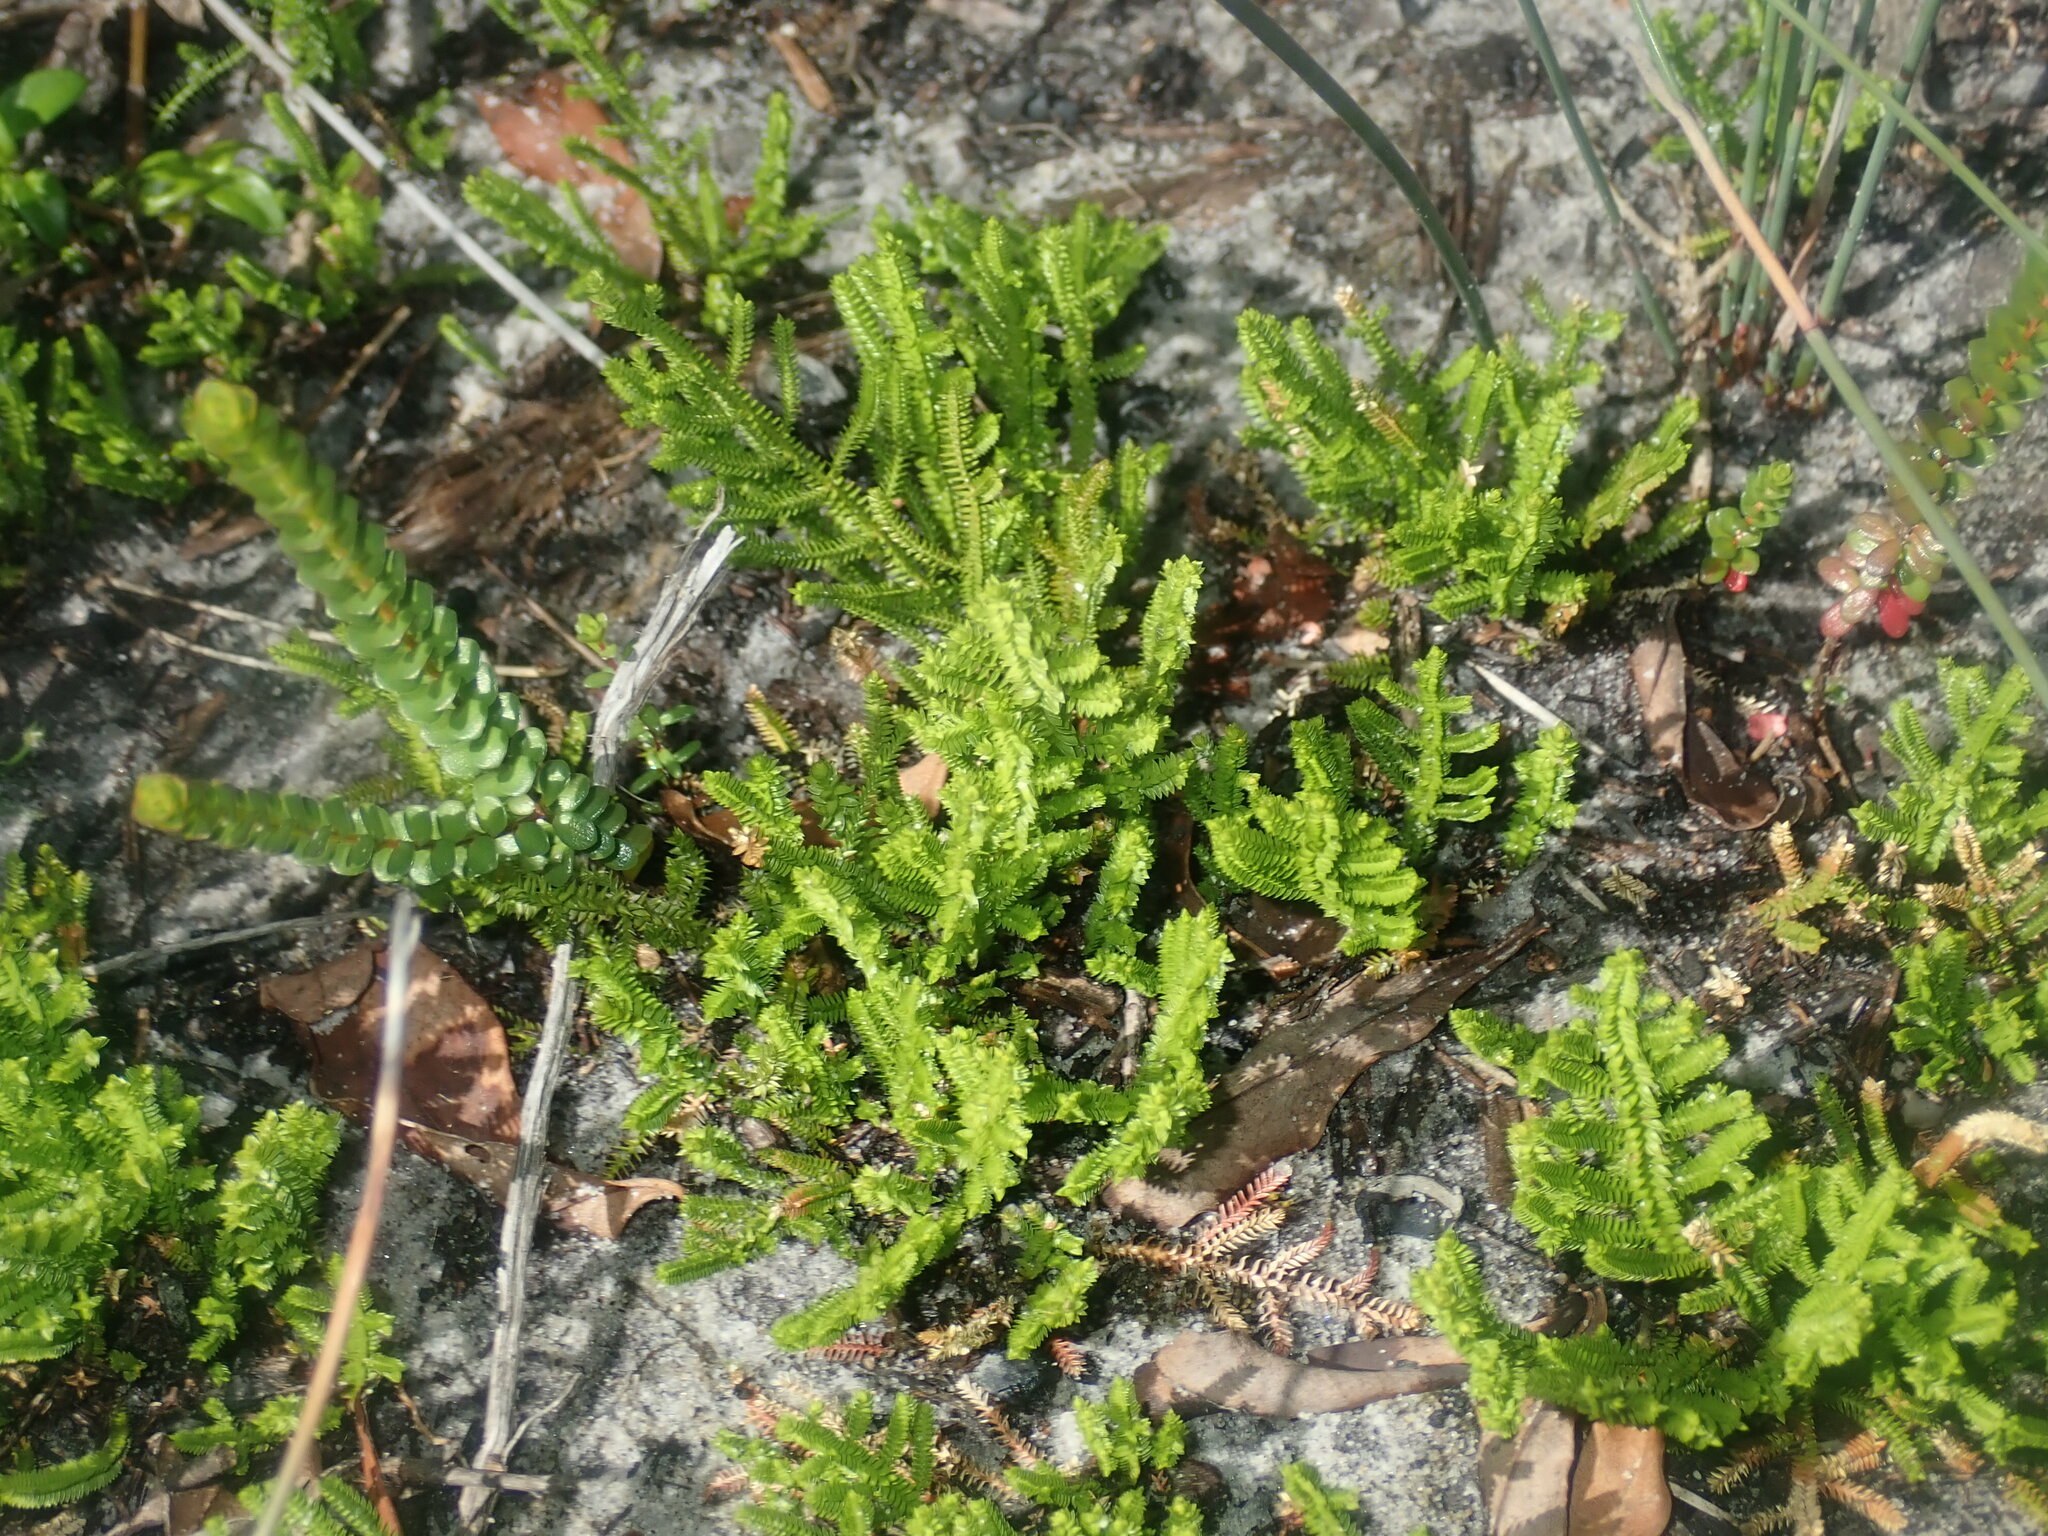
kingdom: Plantae
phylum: Tracheophyta
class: Lycopodiopsida
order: Selaginellales
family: Selaginellaceae
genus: Selaginella
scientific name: Selaginella uliginosa
